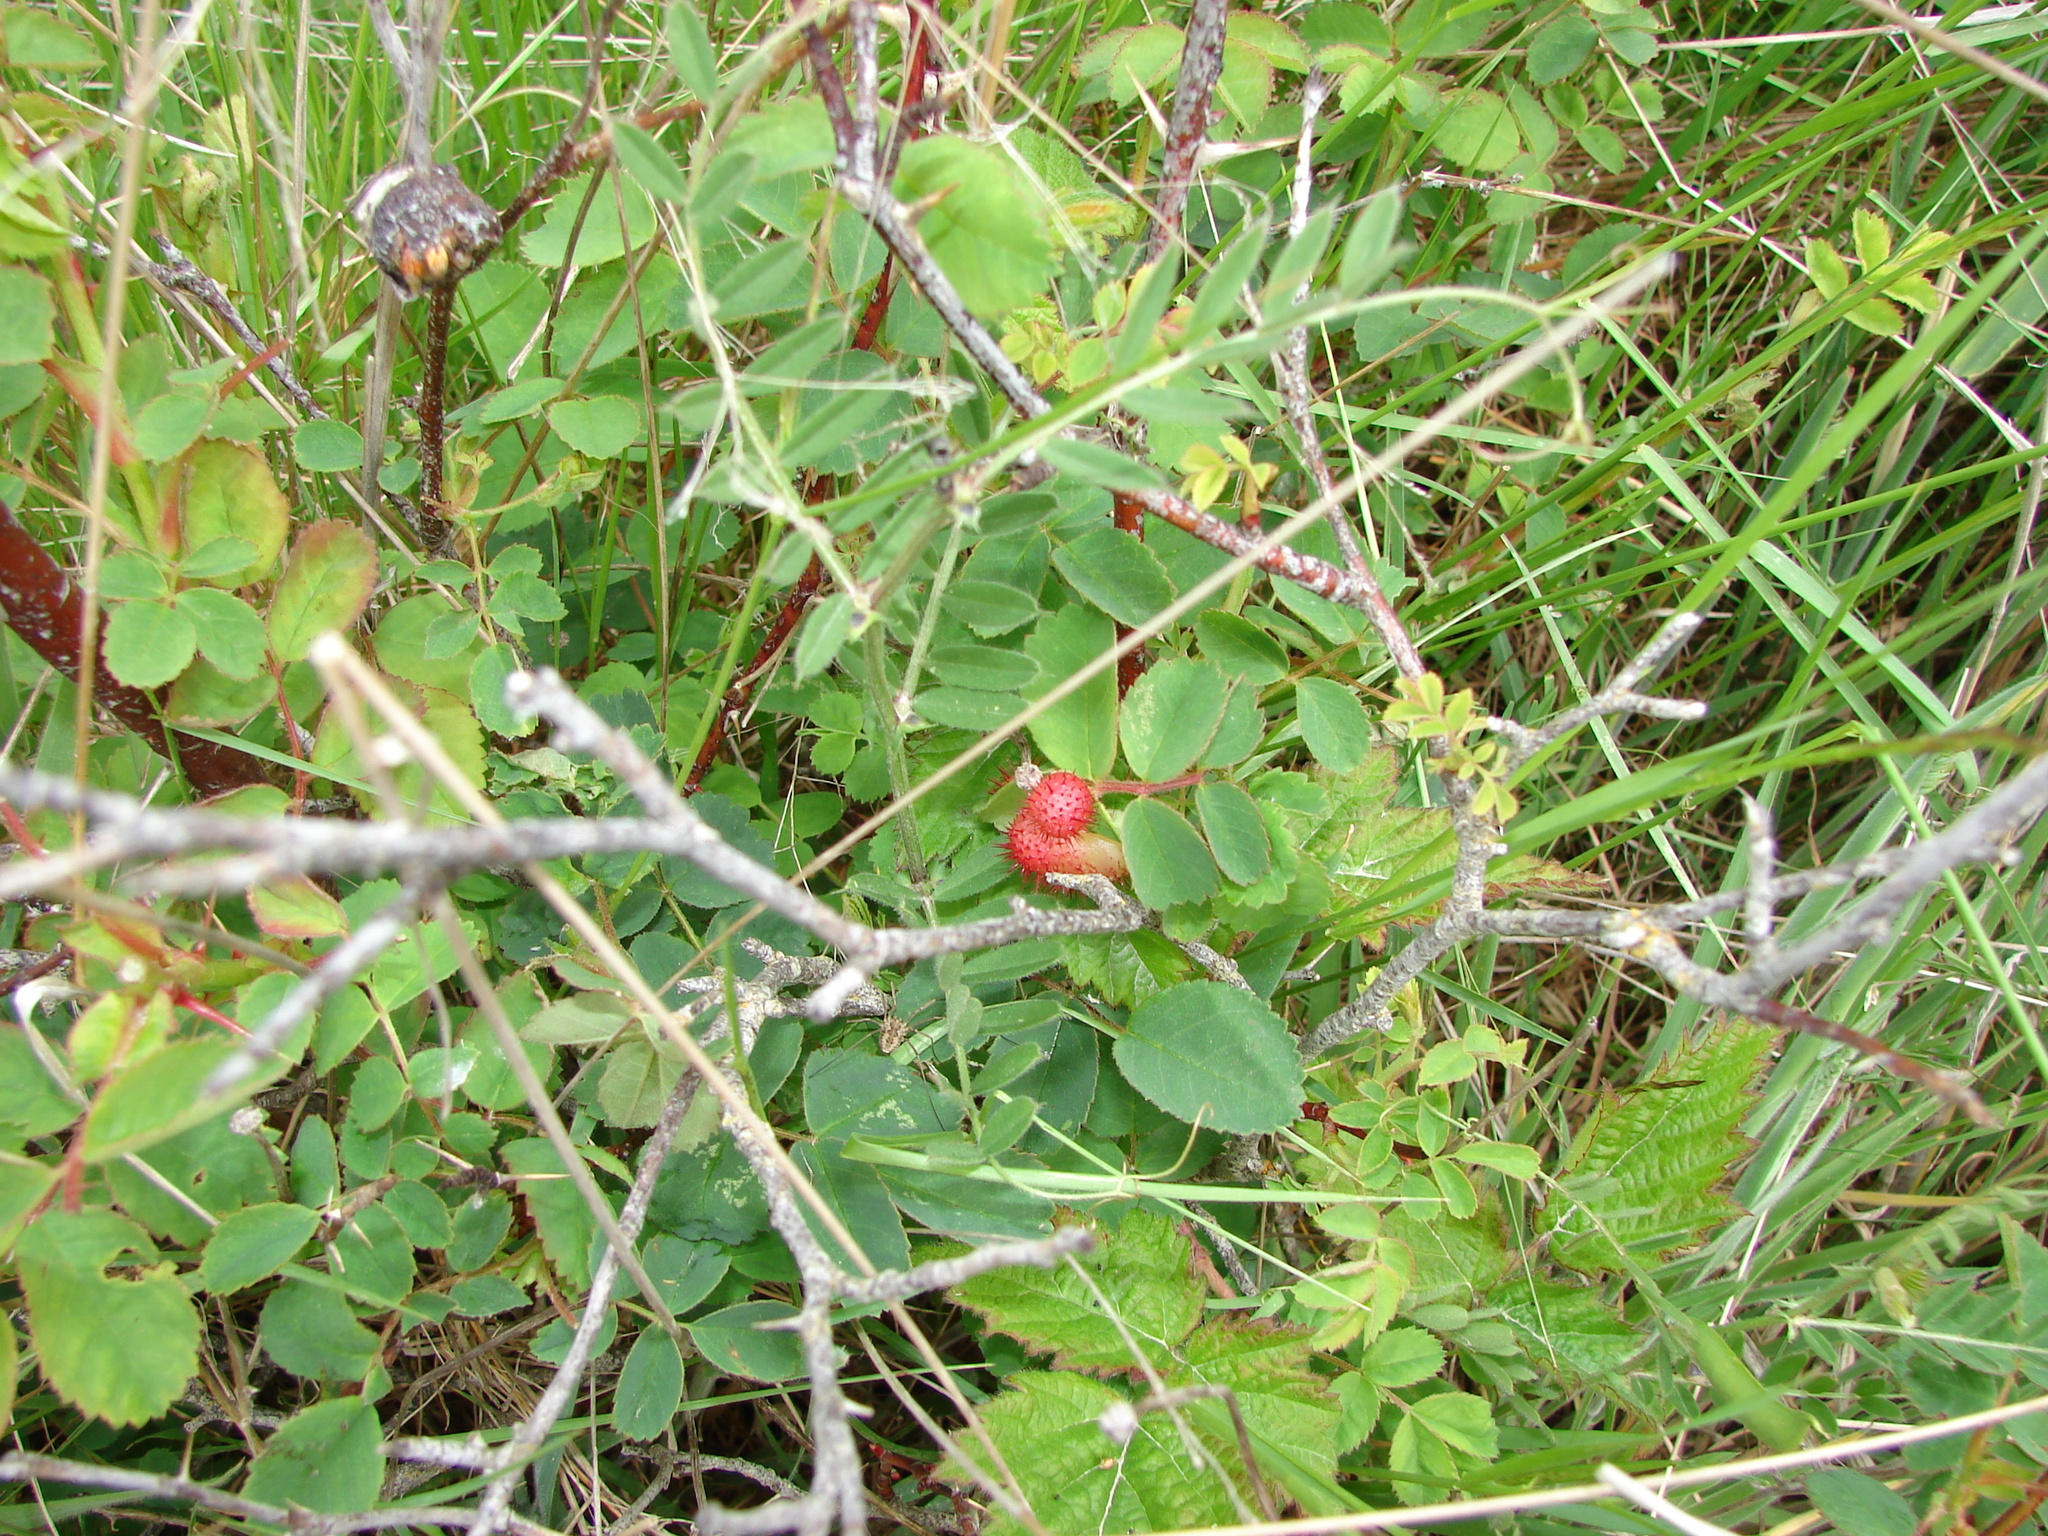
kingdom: Animalia
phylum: Arthropoda
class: Insecta
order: Hymenoptera
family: Cynipidae
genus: Diplolepis
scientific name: Diplolepis polita
